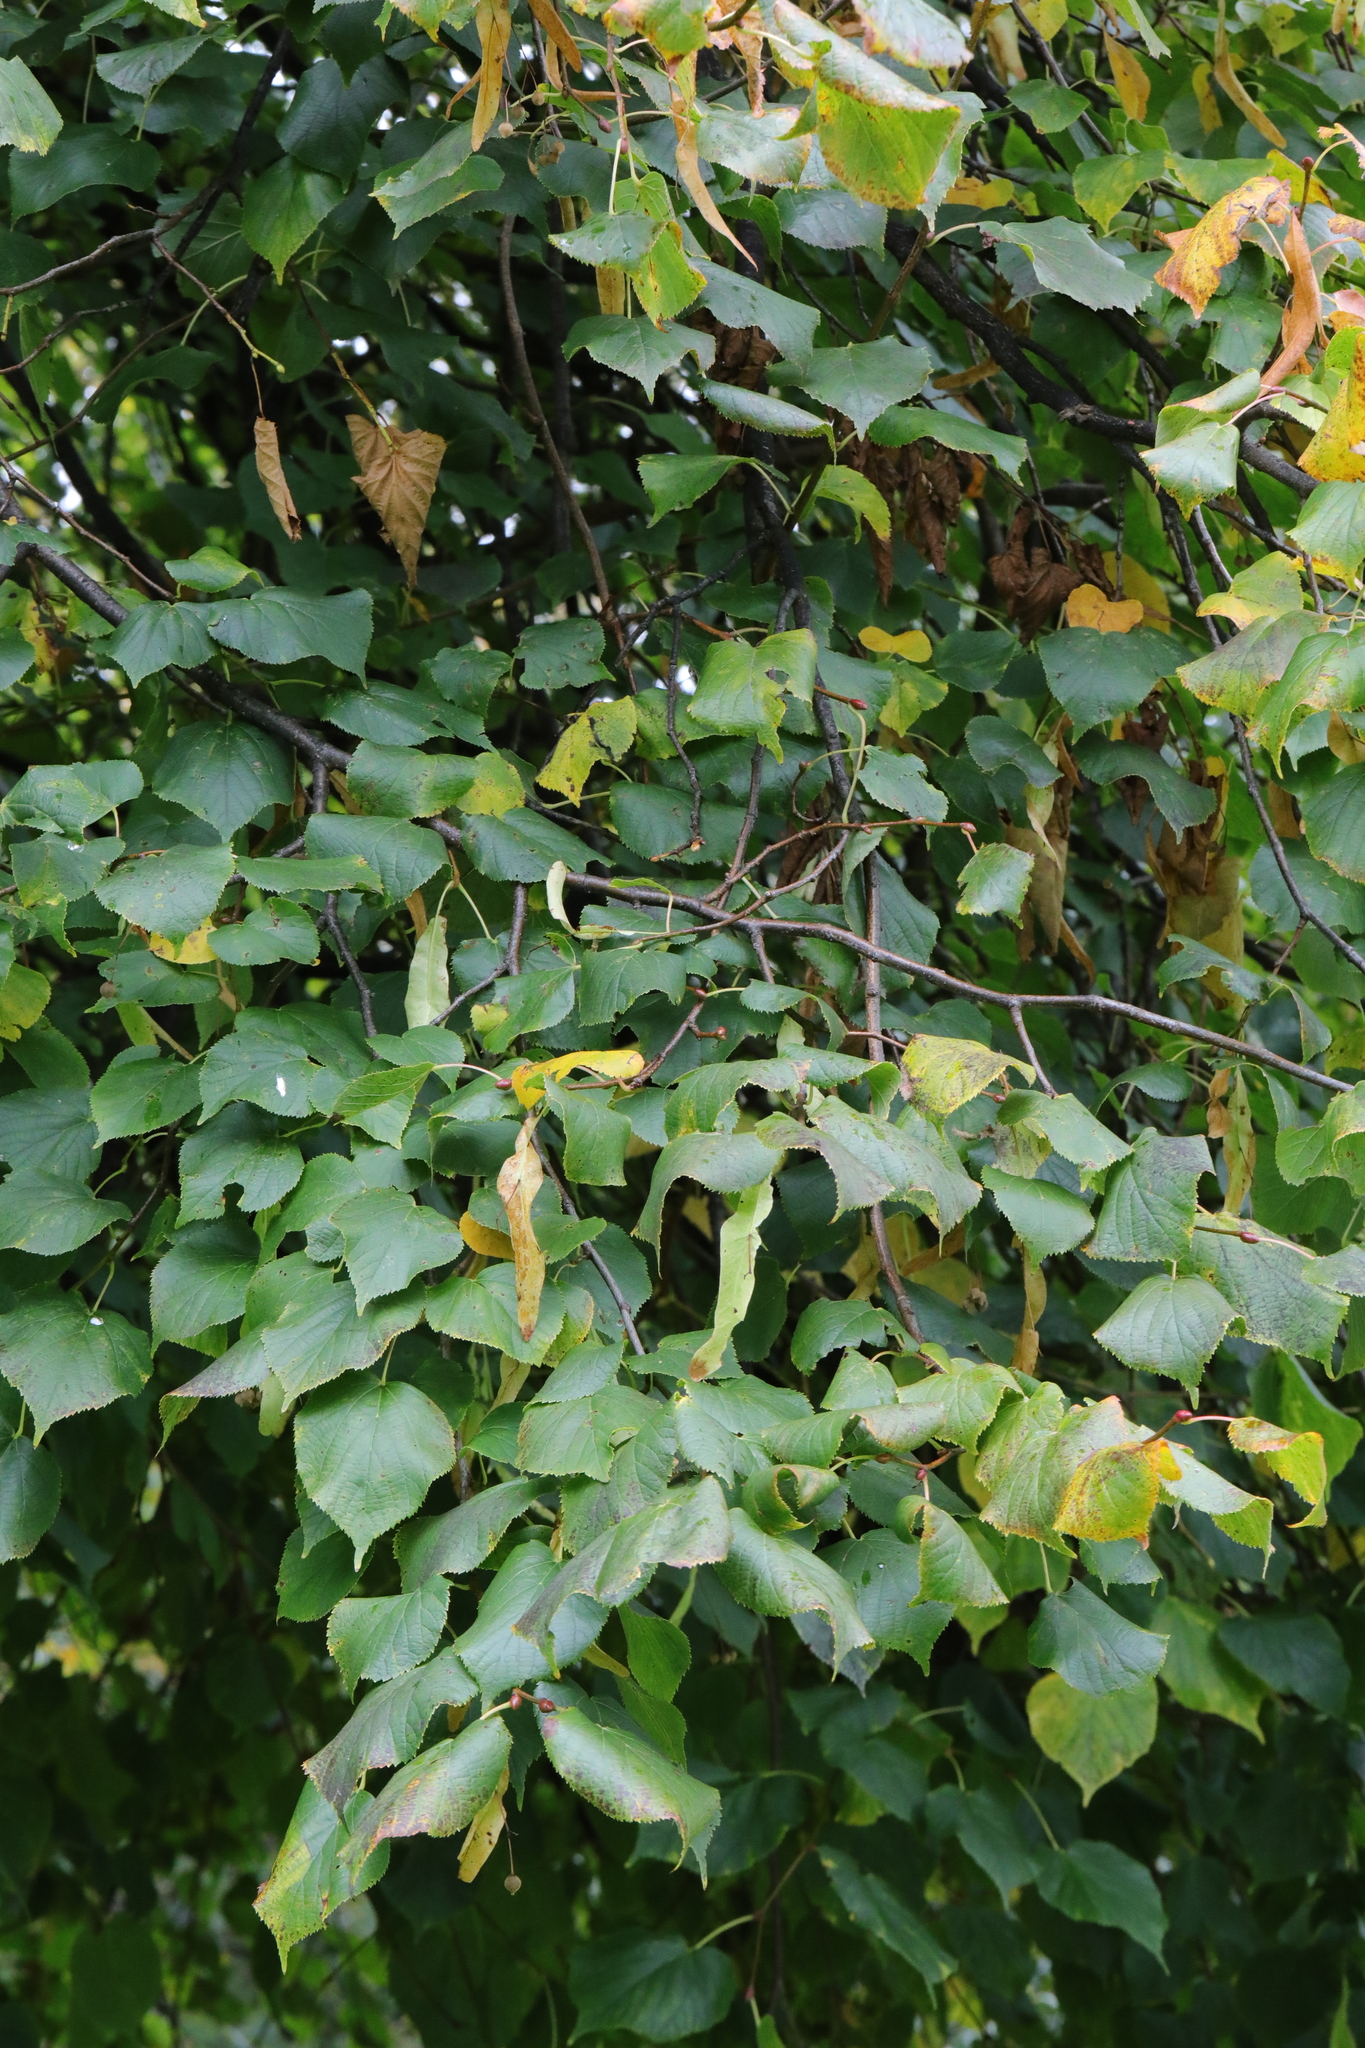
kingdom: Plantae
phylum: Tracheophyta
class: Magnoliopsida
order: Malvales
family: Malvaceae
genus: Tilia
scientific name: Tilia europaea
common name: European linden
